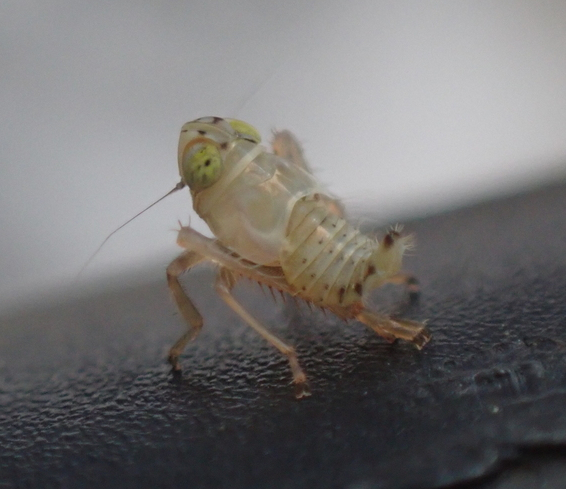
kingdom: Animalia
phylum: Arthropoda
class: Insecta
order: Hemiptera
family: Cicadellidae
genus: Jikradia
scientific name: Jikradia olitoria
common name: Coppery leafhopper
